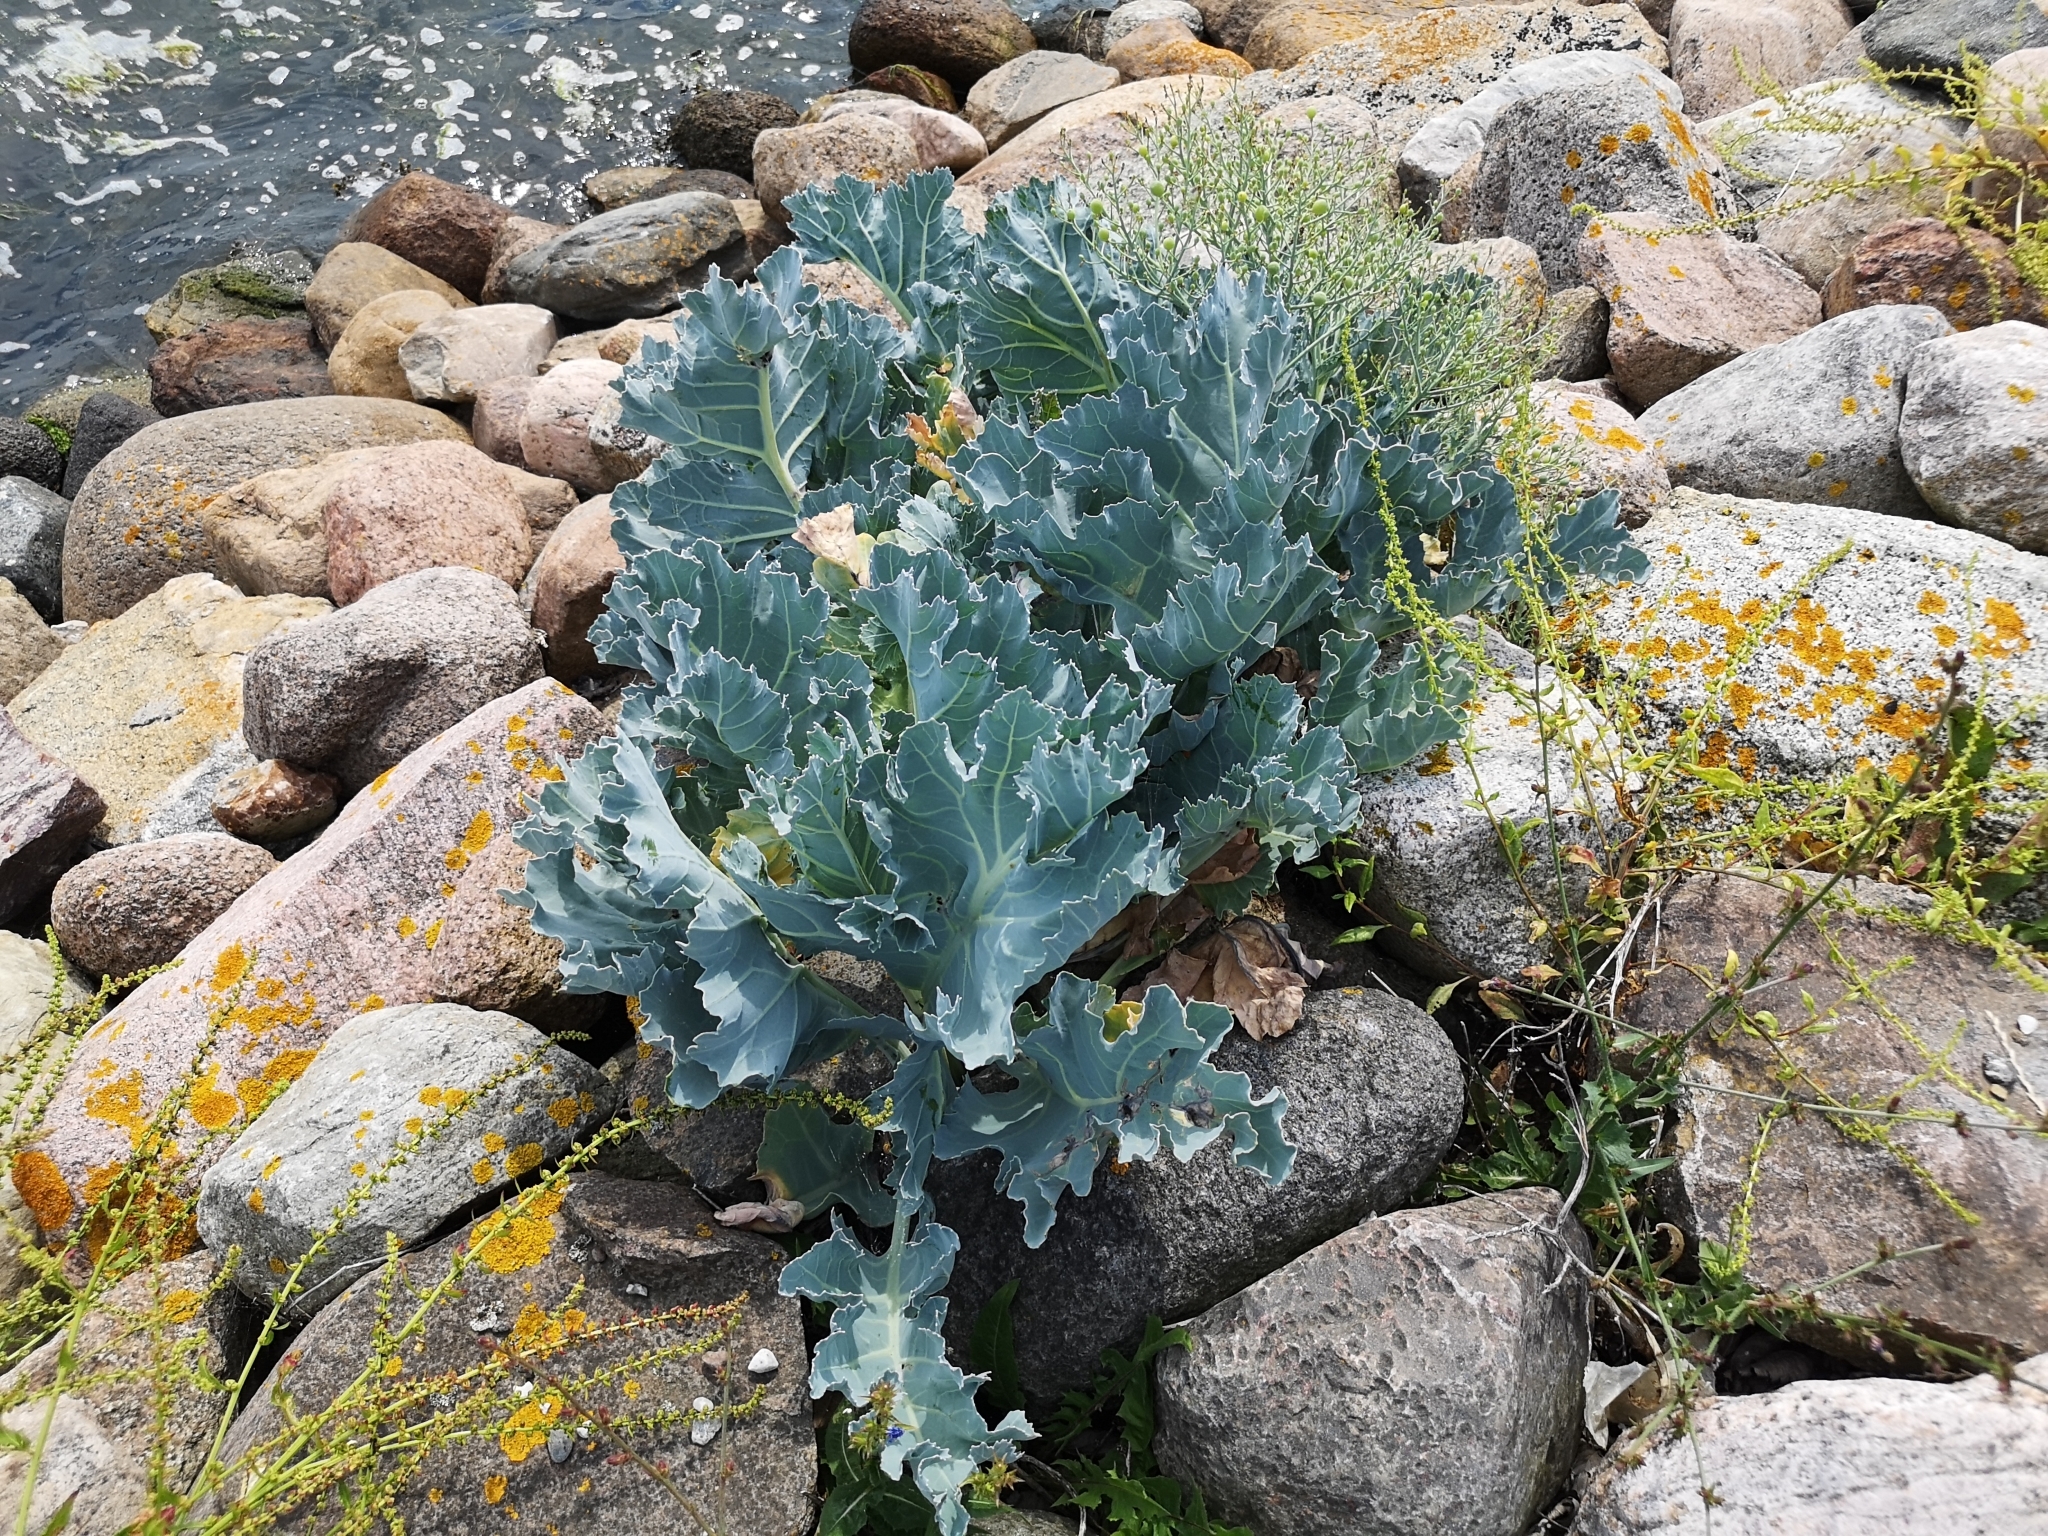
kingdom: Plantae
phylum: Tracheophyta
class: Magnoliopsida
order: Brassicales
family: Brassicaceae
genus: Crambe
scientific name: Crambe maritima
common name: Sea-kale
